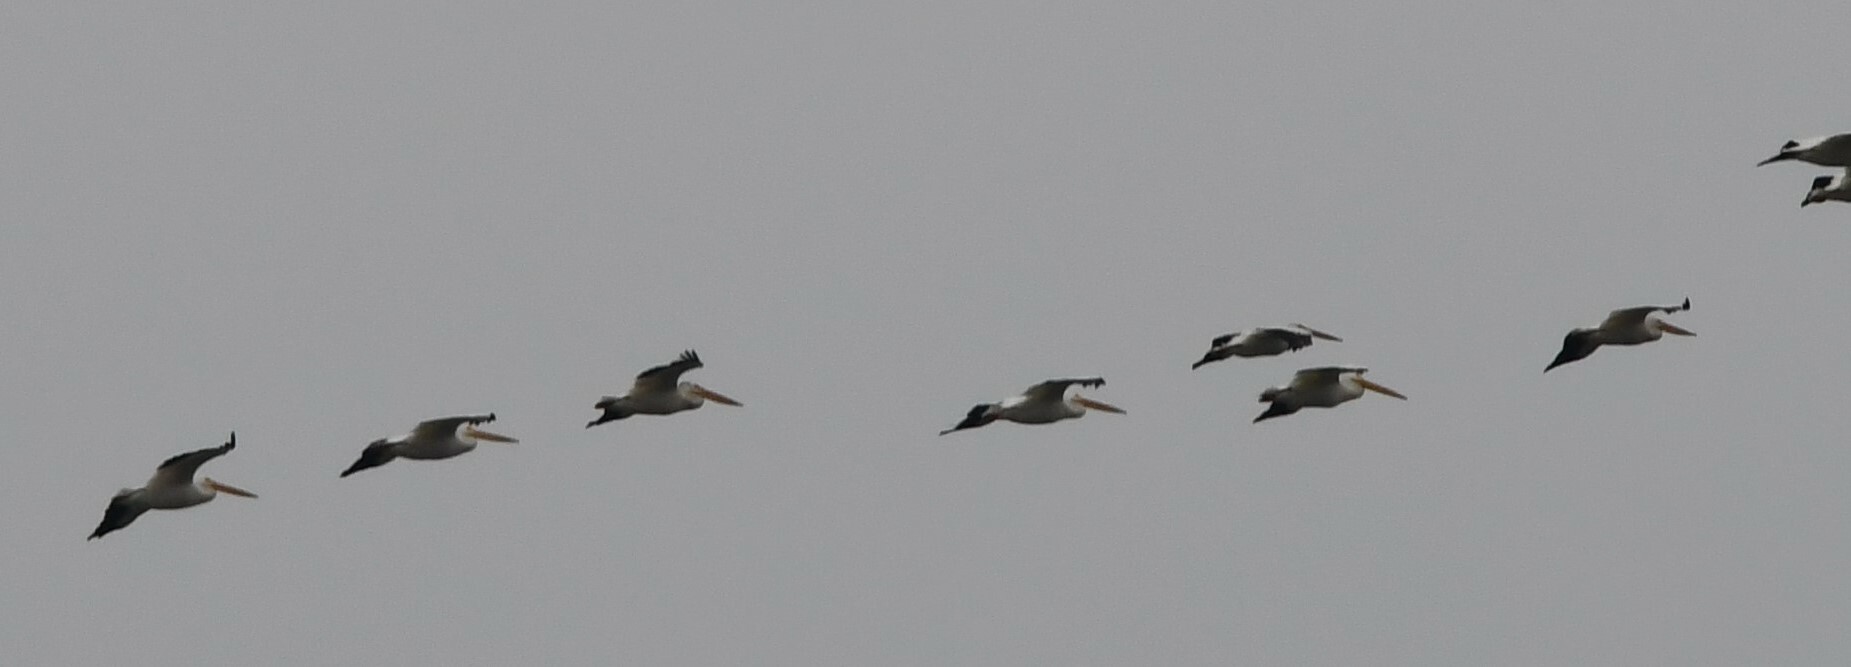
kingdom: Animalia
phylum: Chordata
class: Aves
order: Pelecaniformes
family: Pelecanidae
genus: Pelecanus
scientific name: Pelecanus erythrorhynchos
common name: American white pelican
